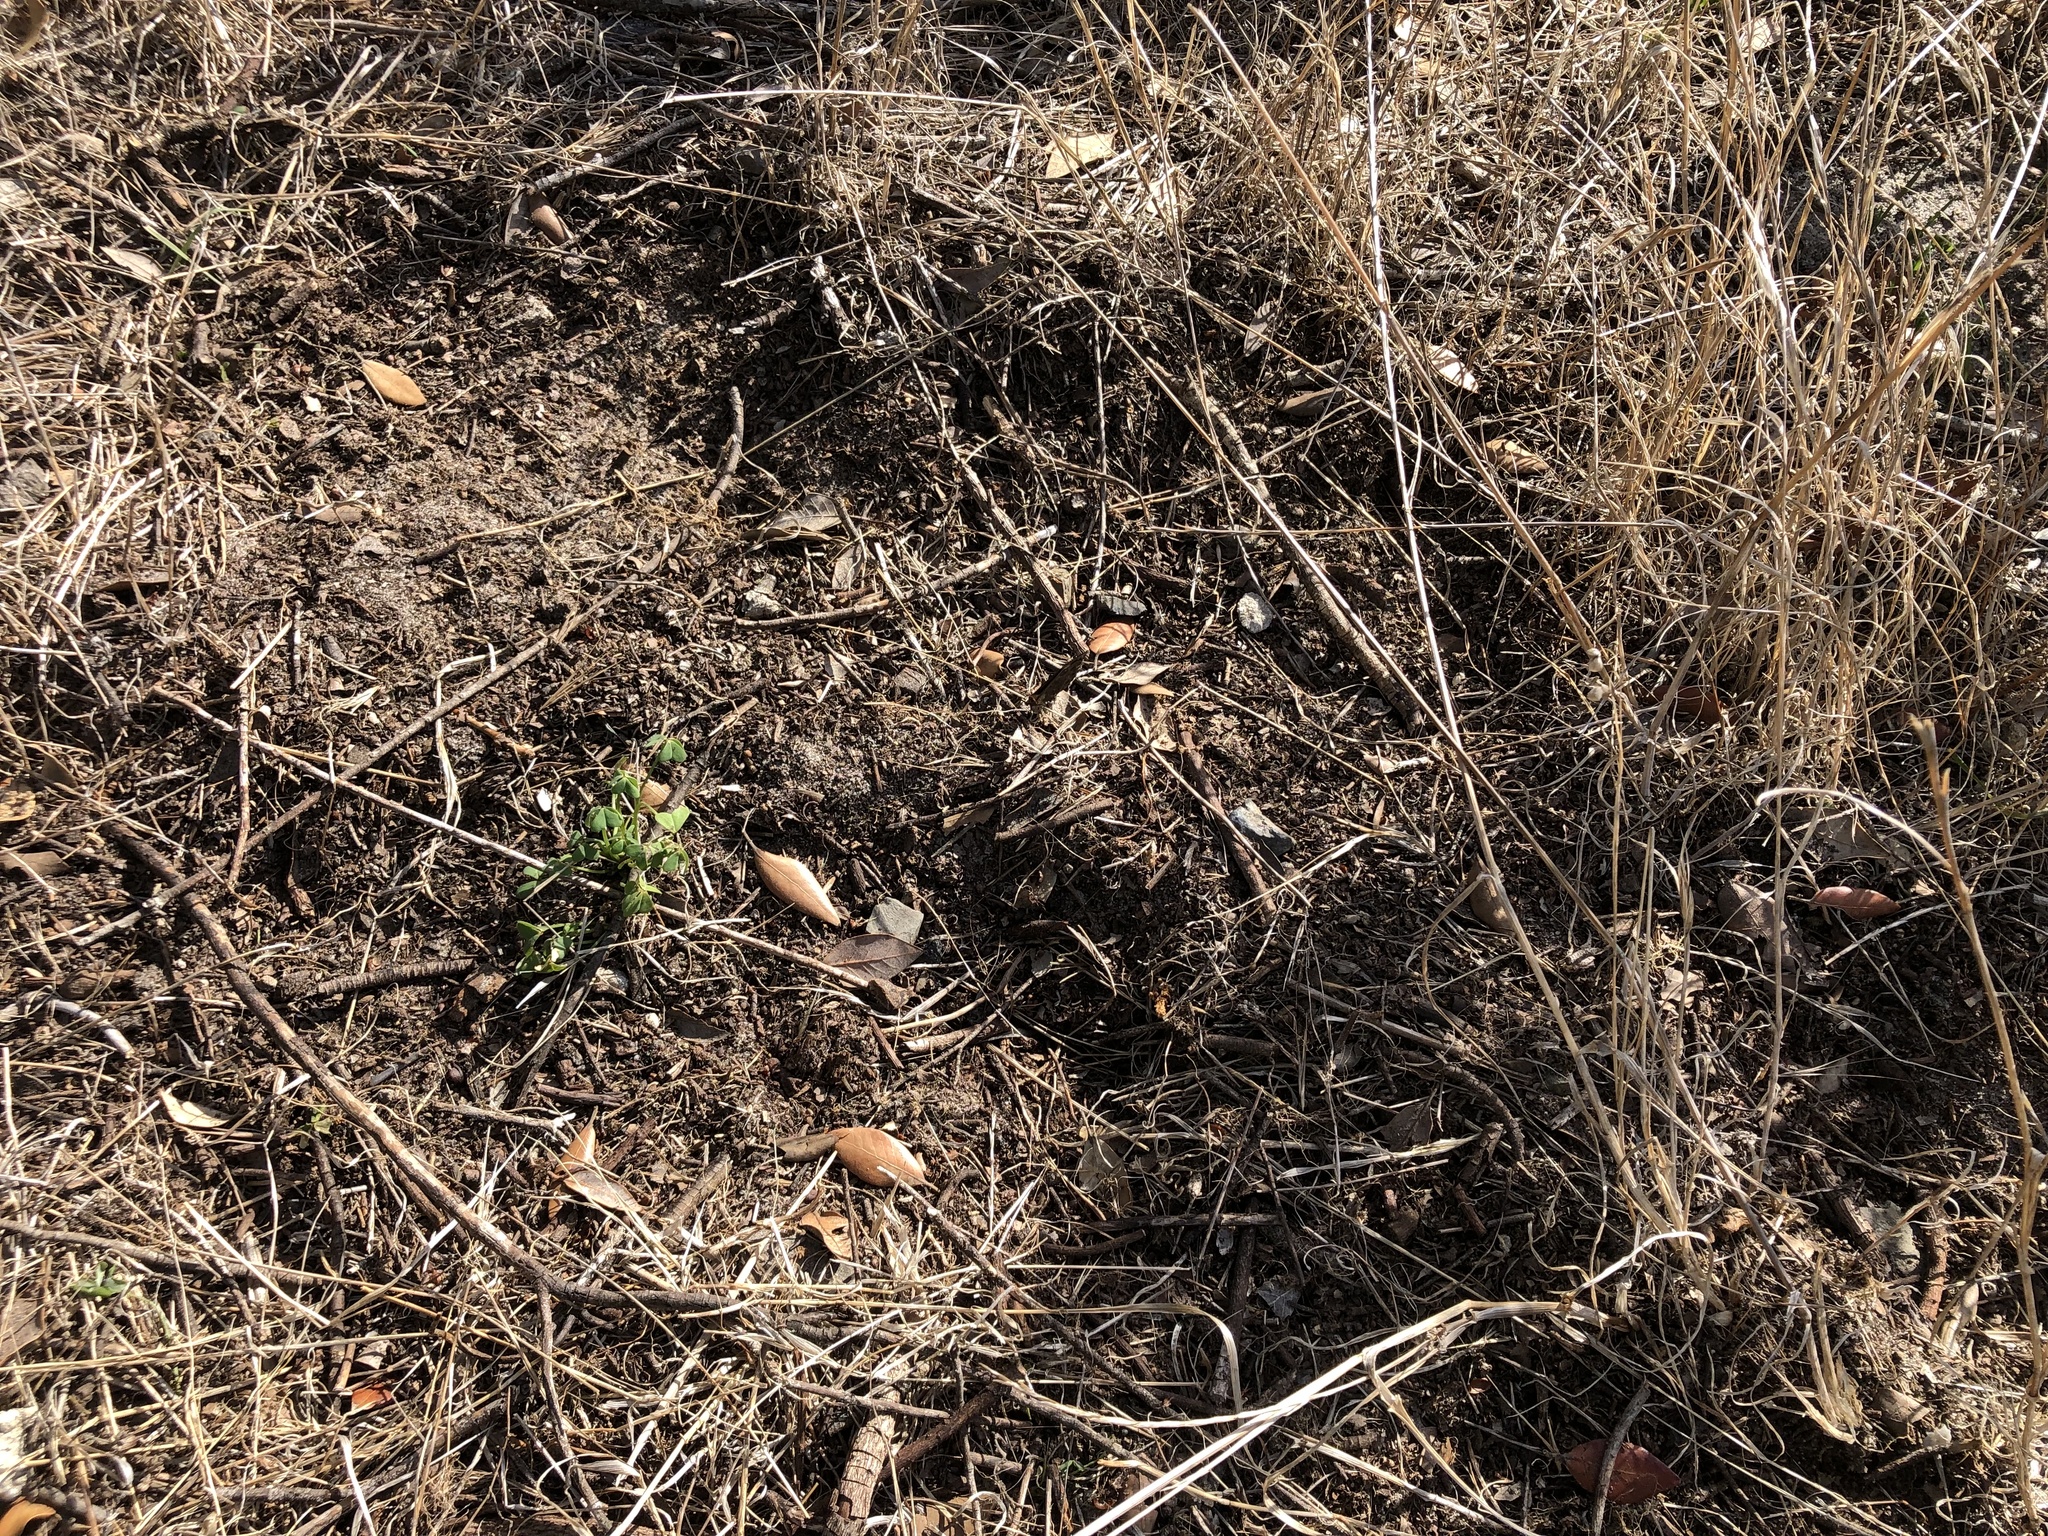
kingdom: Plantae
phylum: Tracheophyta
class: Magnoliopsida
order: Oxalidales
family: Oxalidaceae
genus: Oxalis
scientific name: Oxalis pes-caprae
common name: Bermuda-buttercup
